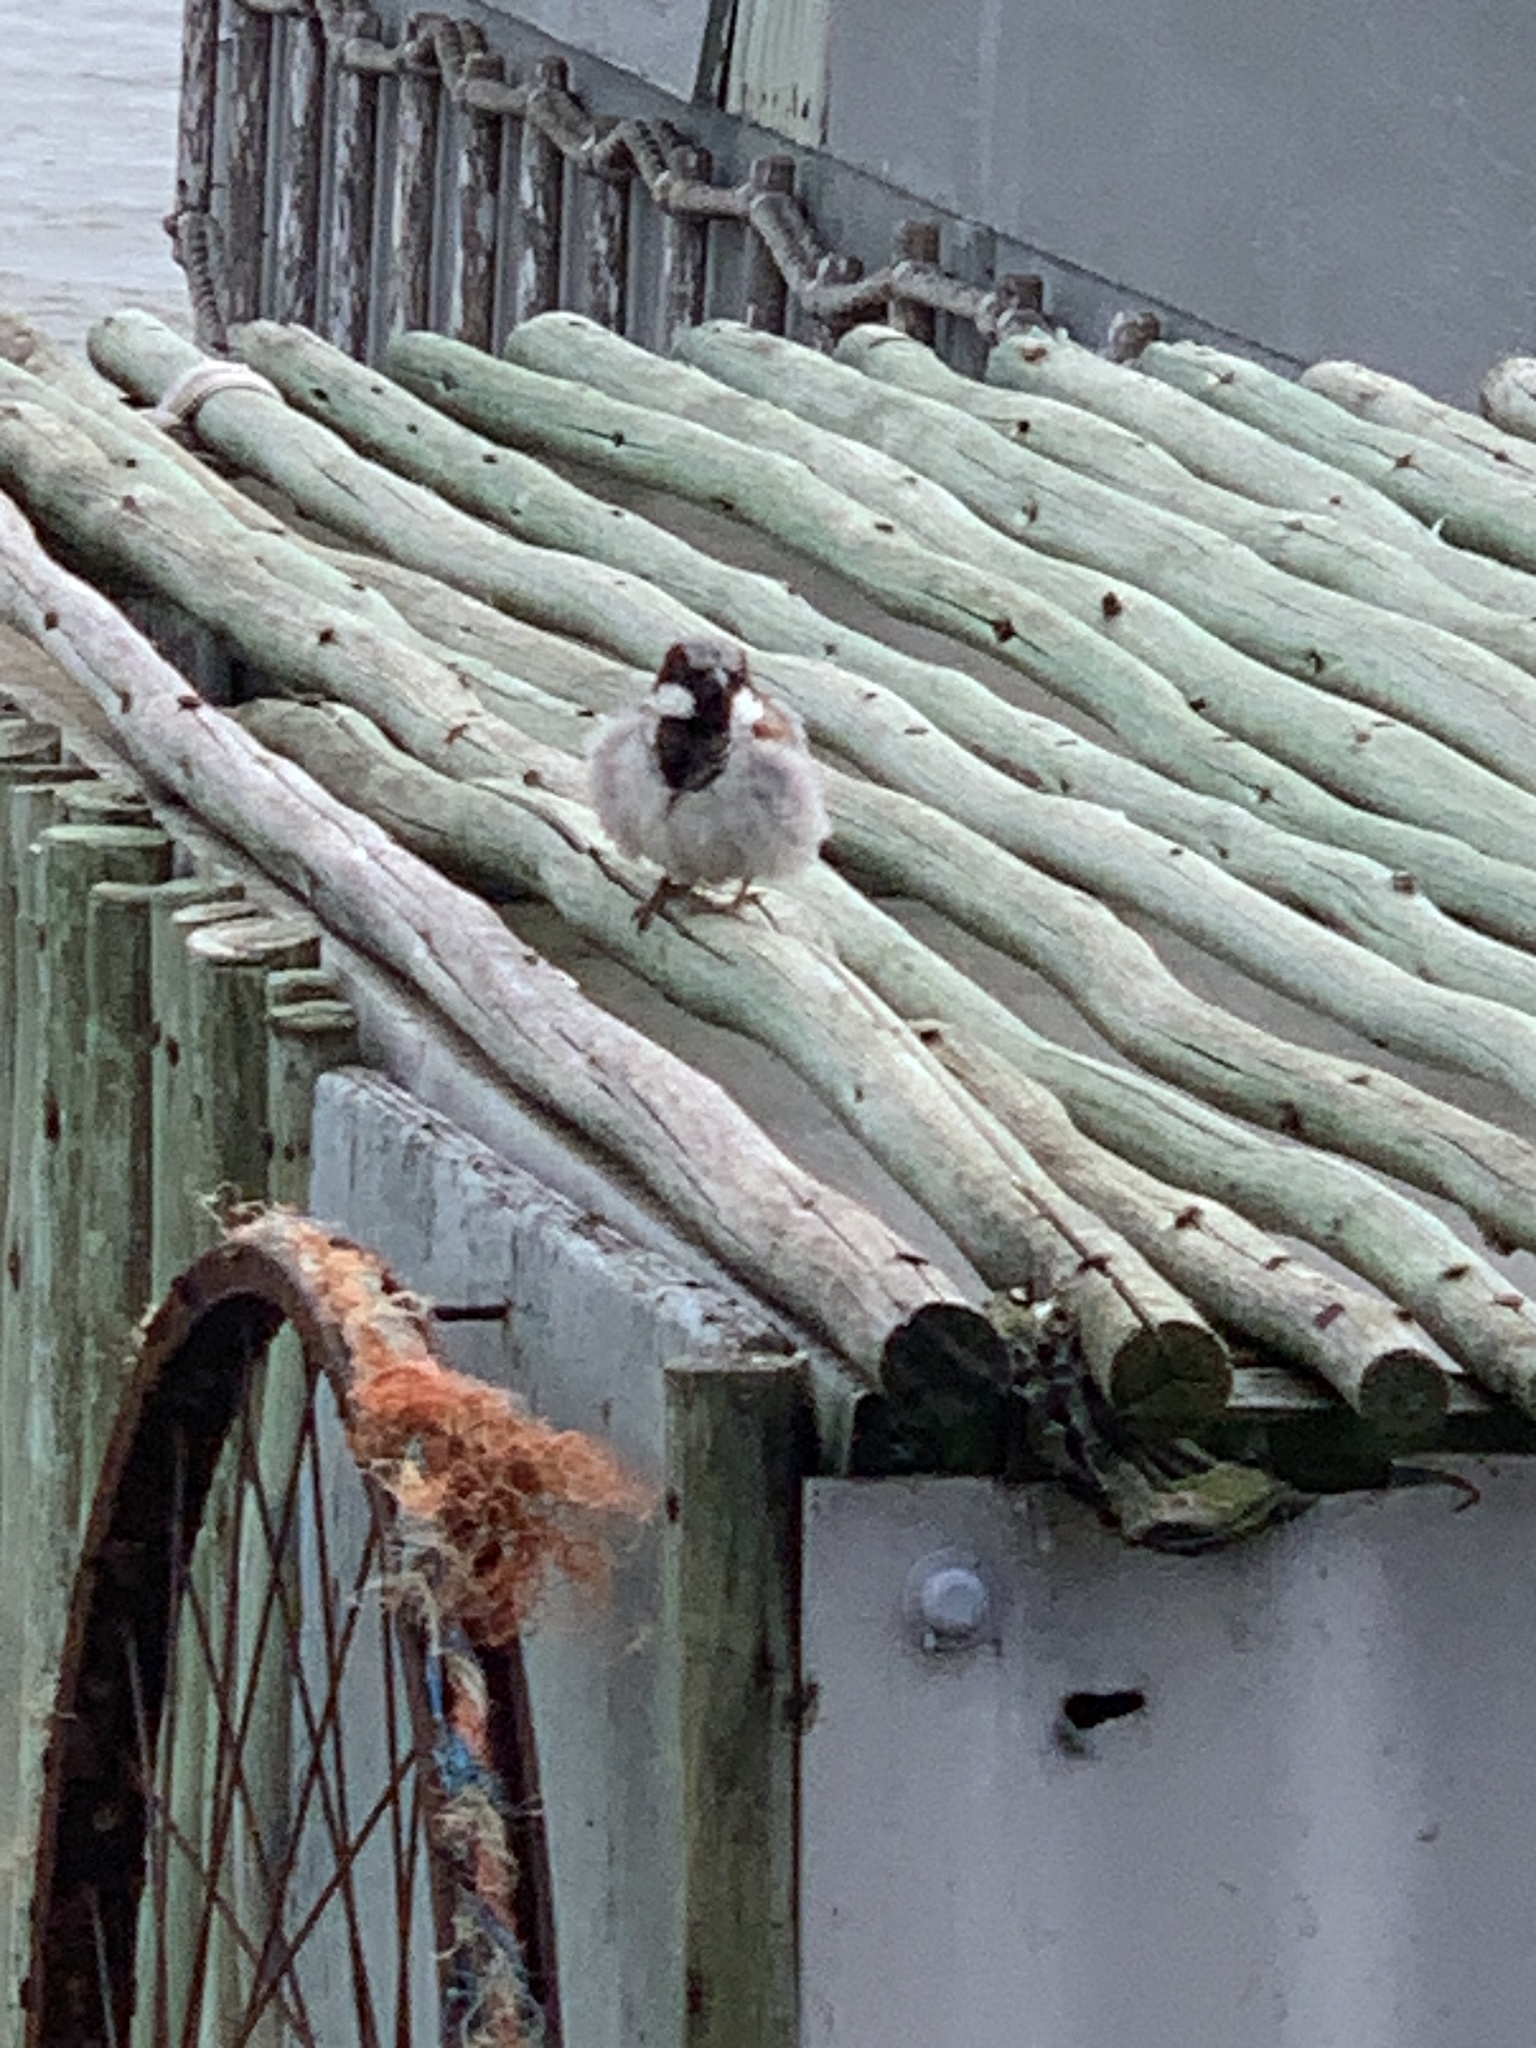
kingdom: Animalia
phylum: Chordata
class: Aves
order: Passeriformes
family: Passeridae
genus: Passer
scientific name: Passer domesticus
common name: House sparrow
